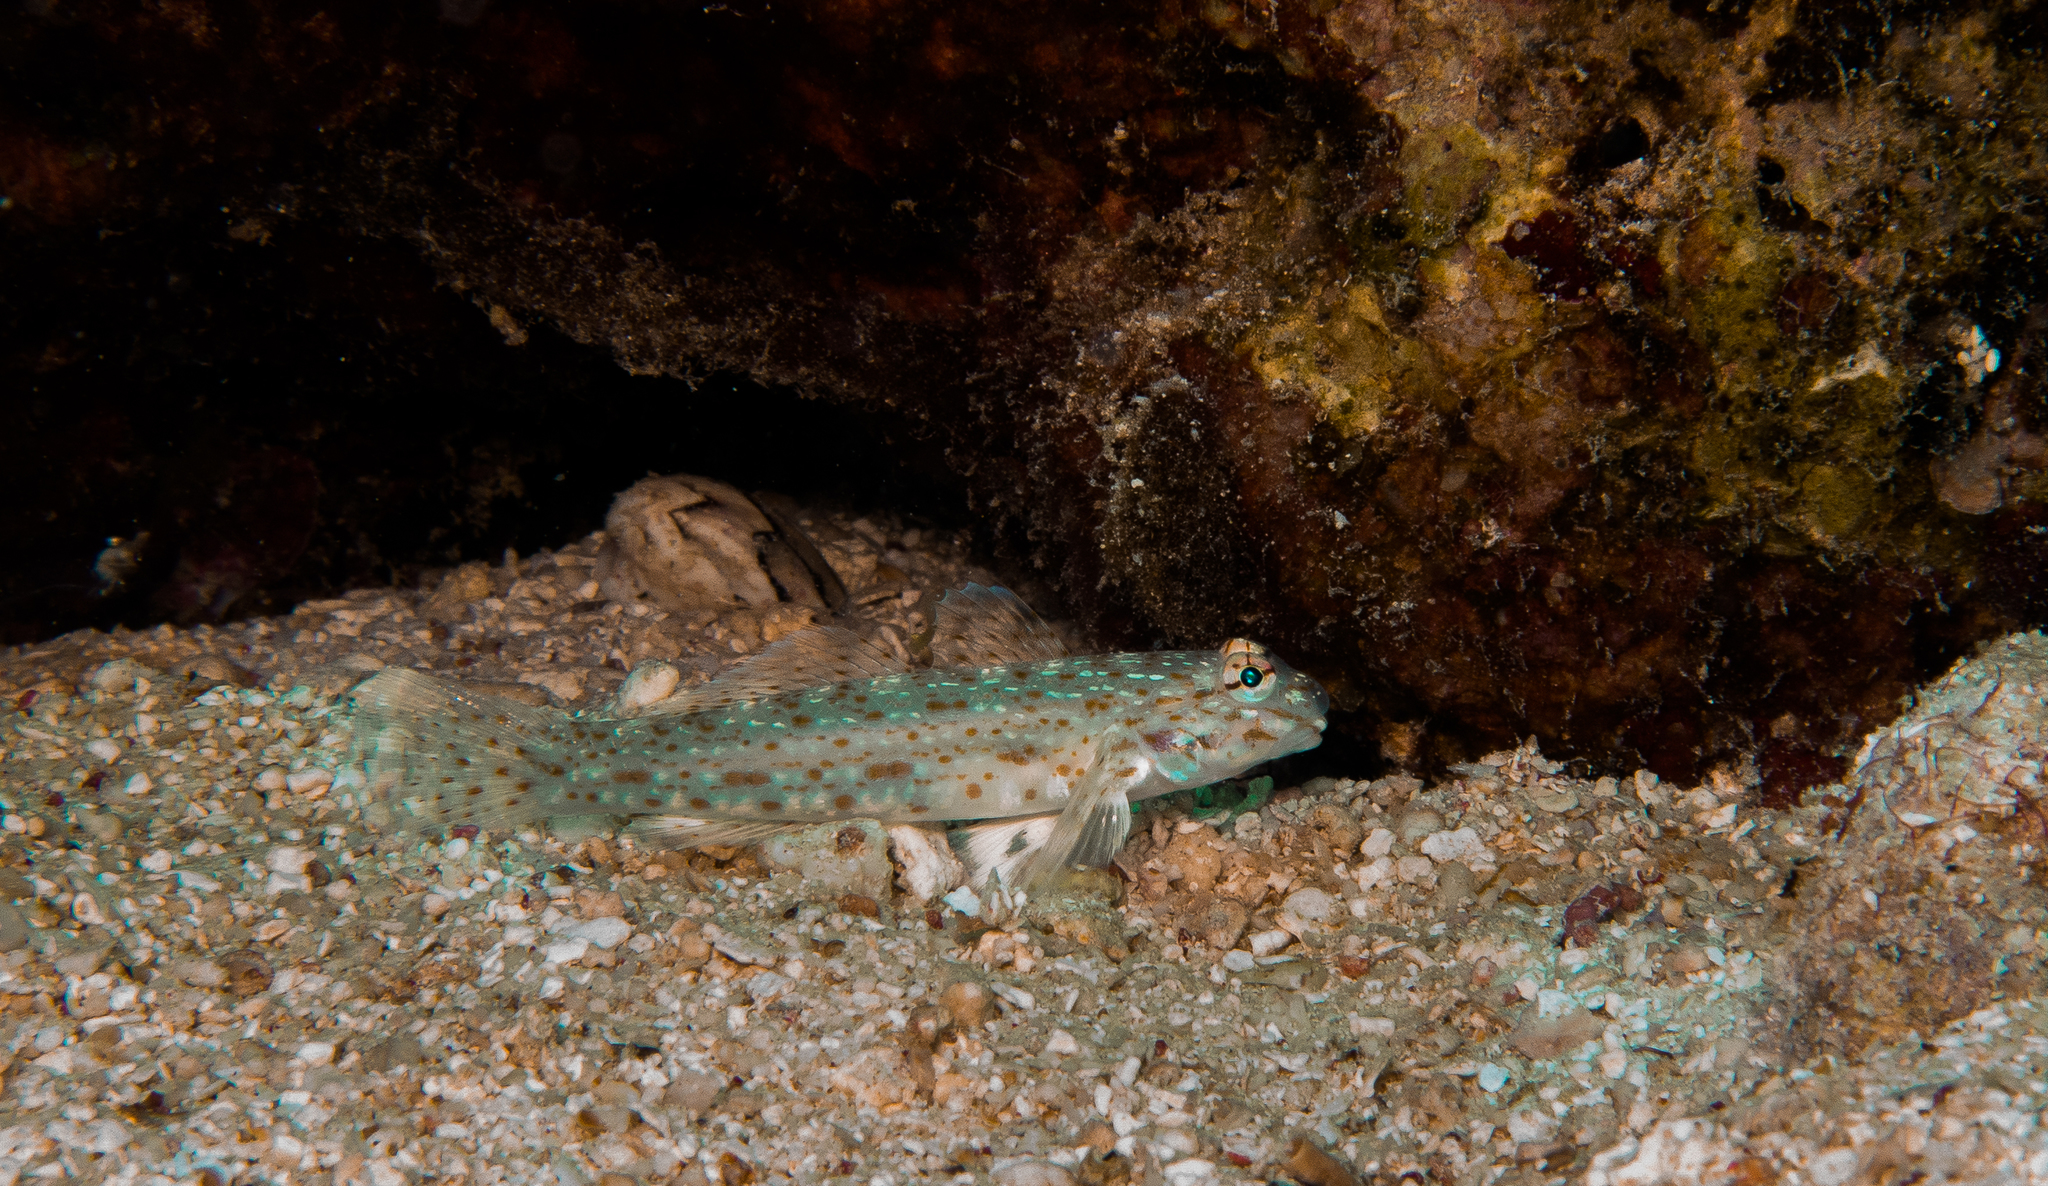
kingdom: Animalia
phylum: Chordata
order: Perciformes
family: Gobiidae
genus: Istigobius
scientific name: Istigobius rigilius
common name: Rigilius goby
